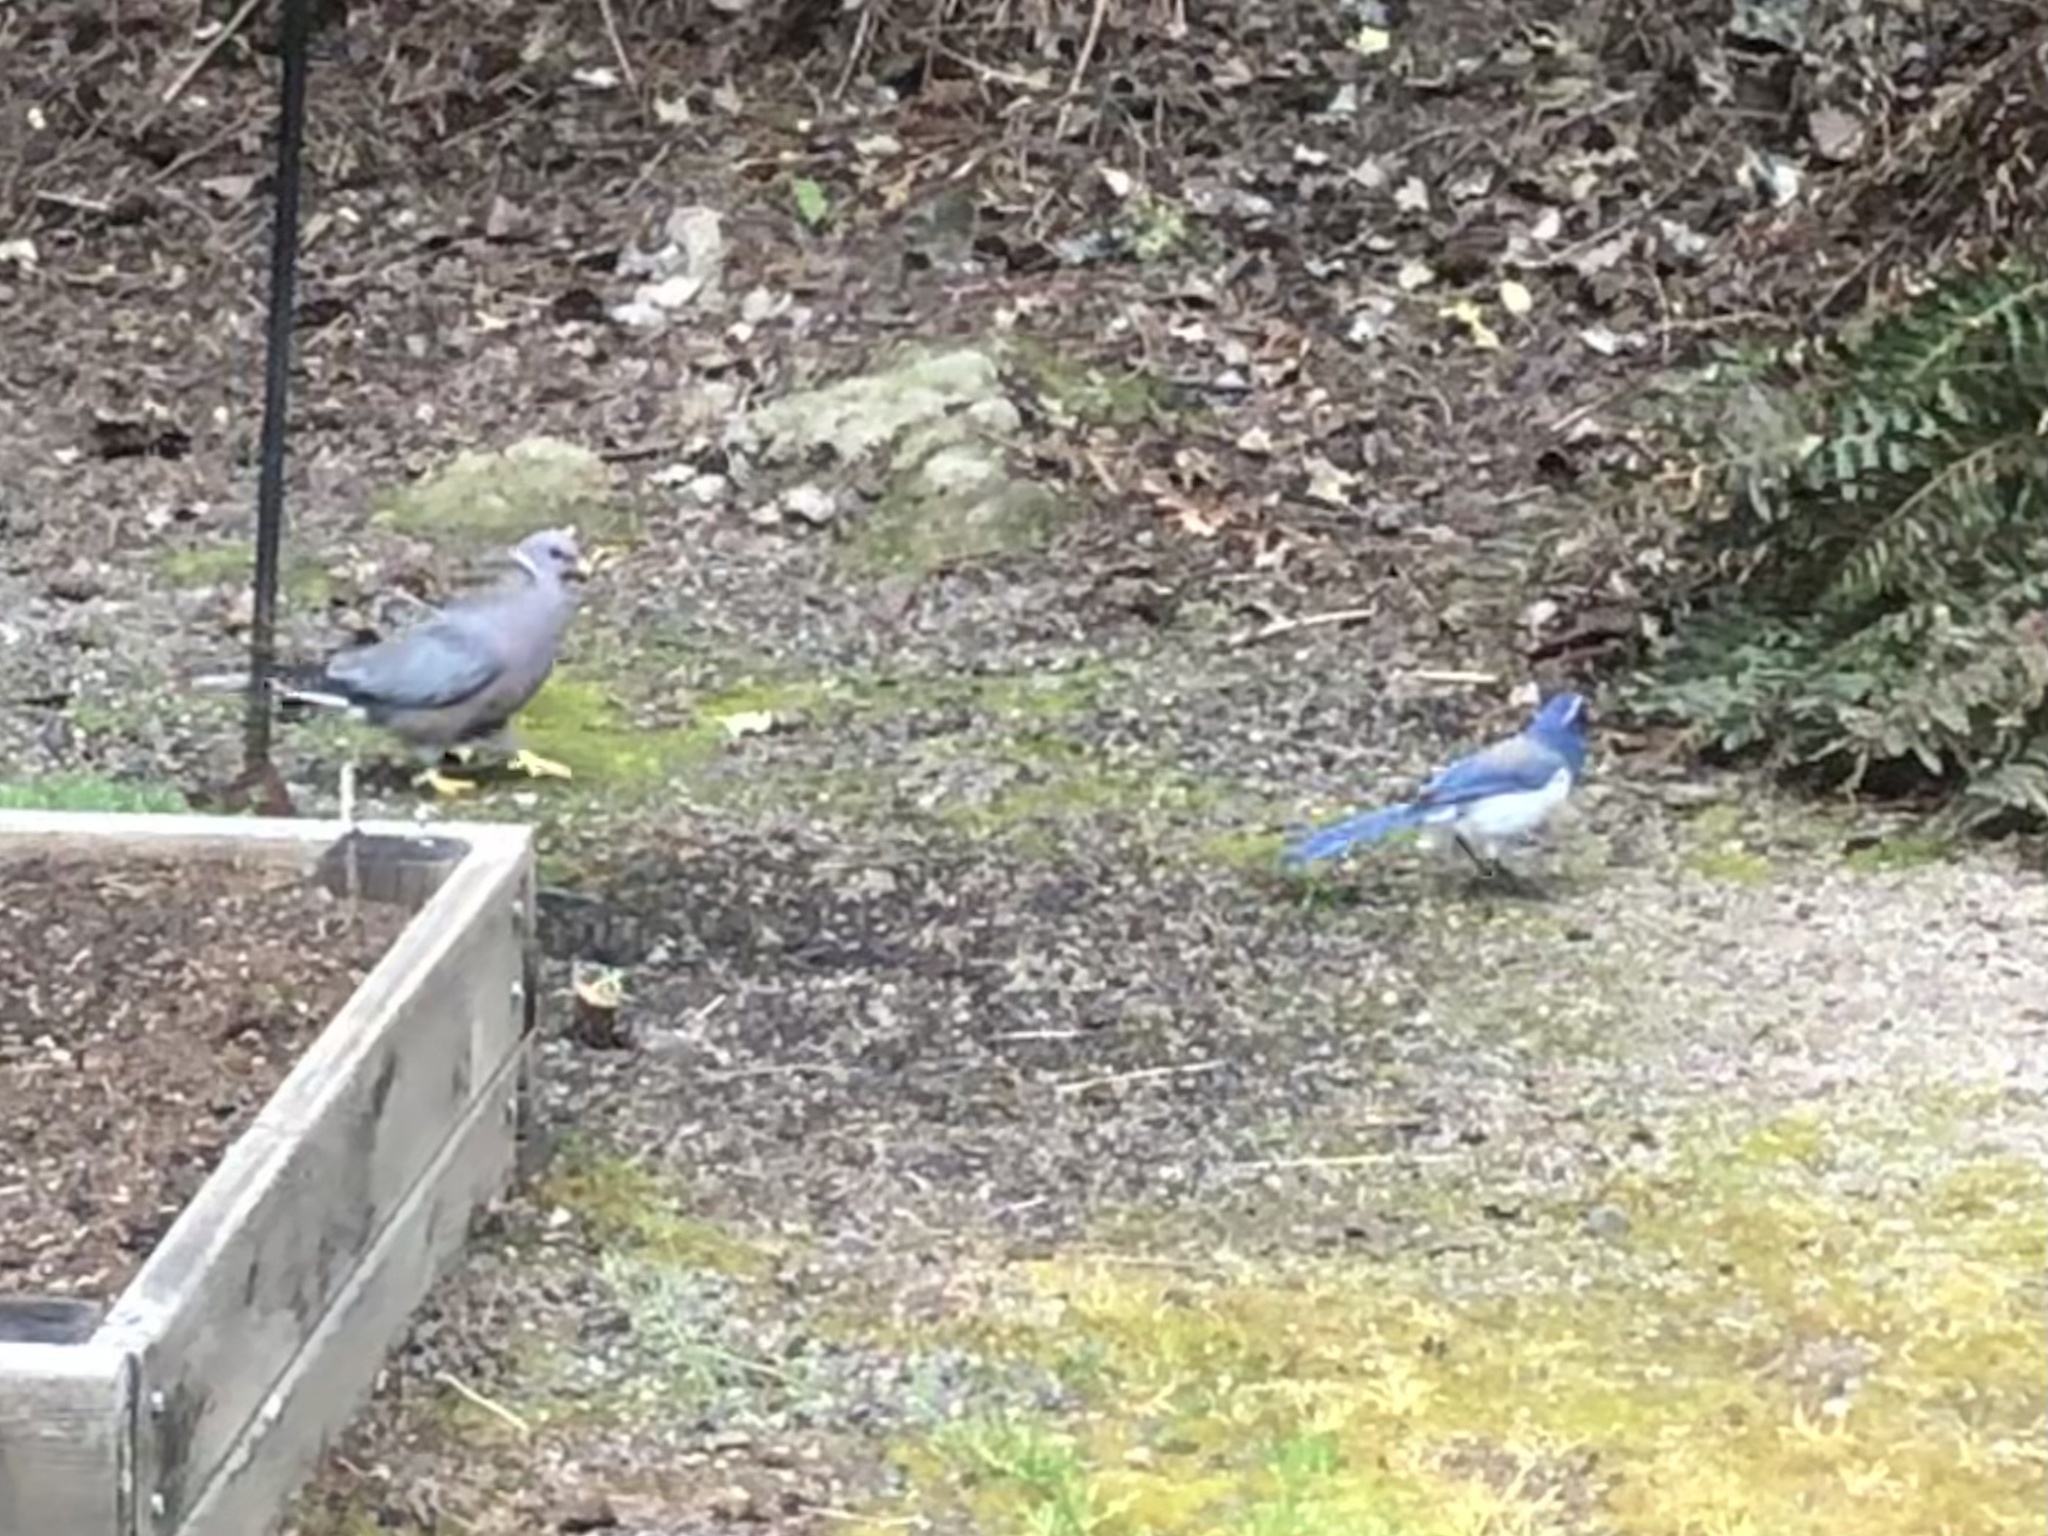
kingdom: Animalia
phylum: Chordata
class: Aves
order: Passeriformes
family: Corvidae
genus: Aphelocoma
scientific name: Aphelocoma californica
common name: California scrub-jay
